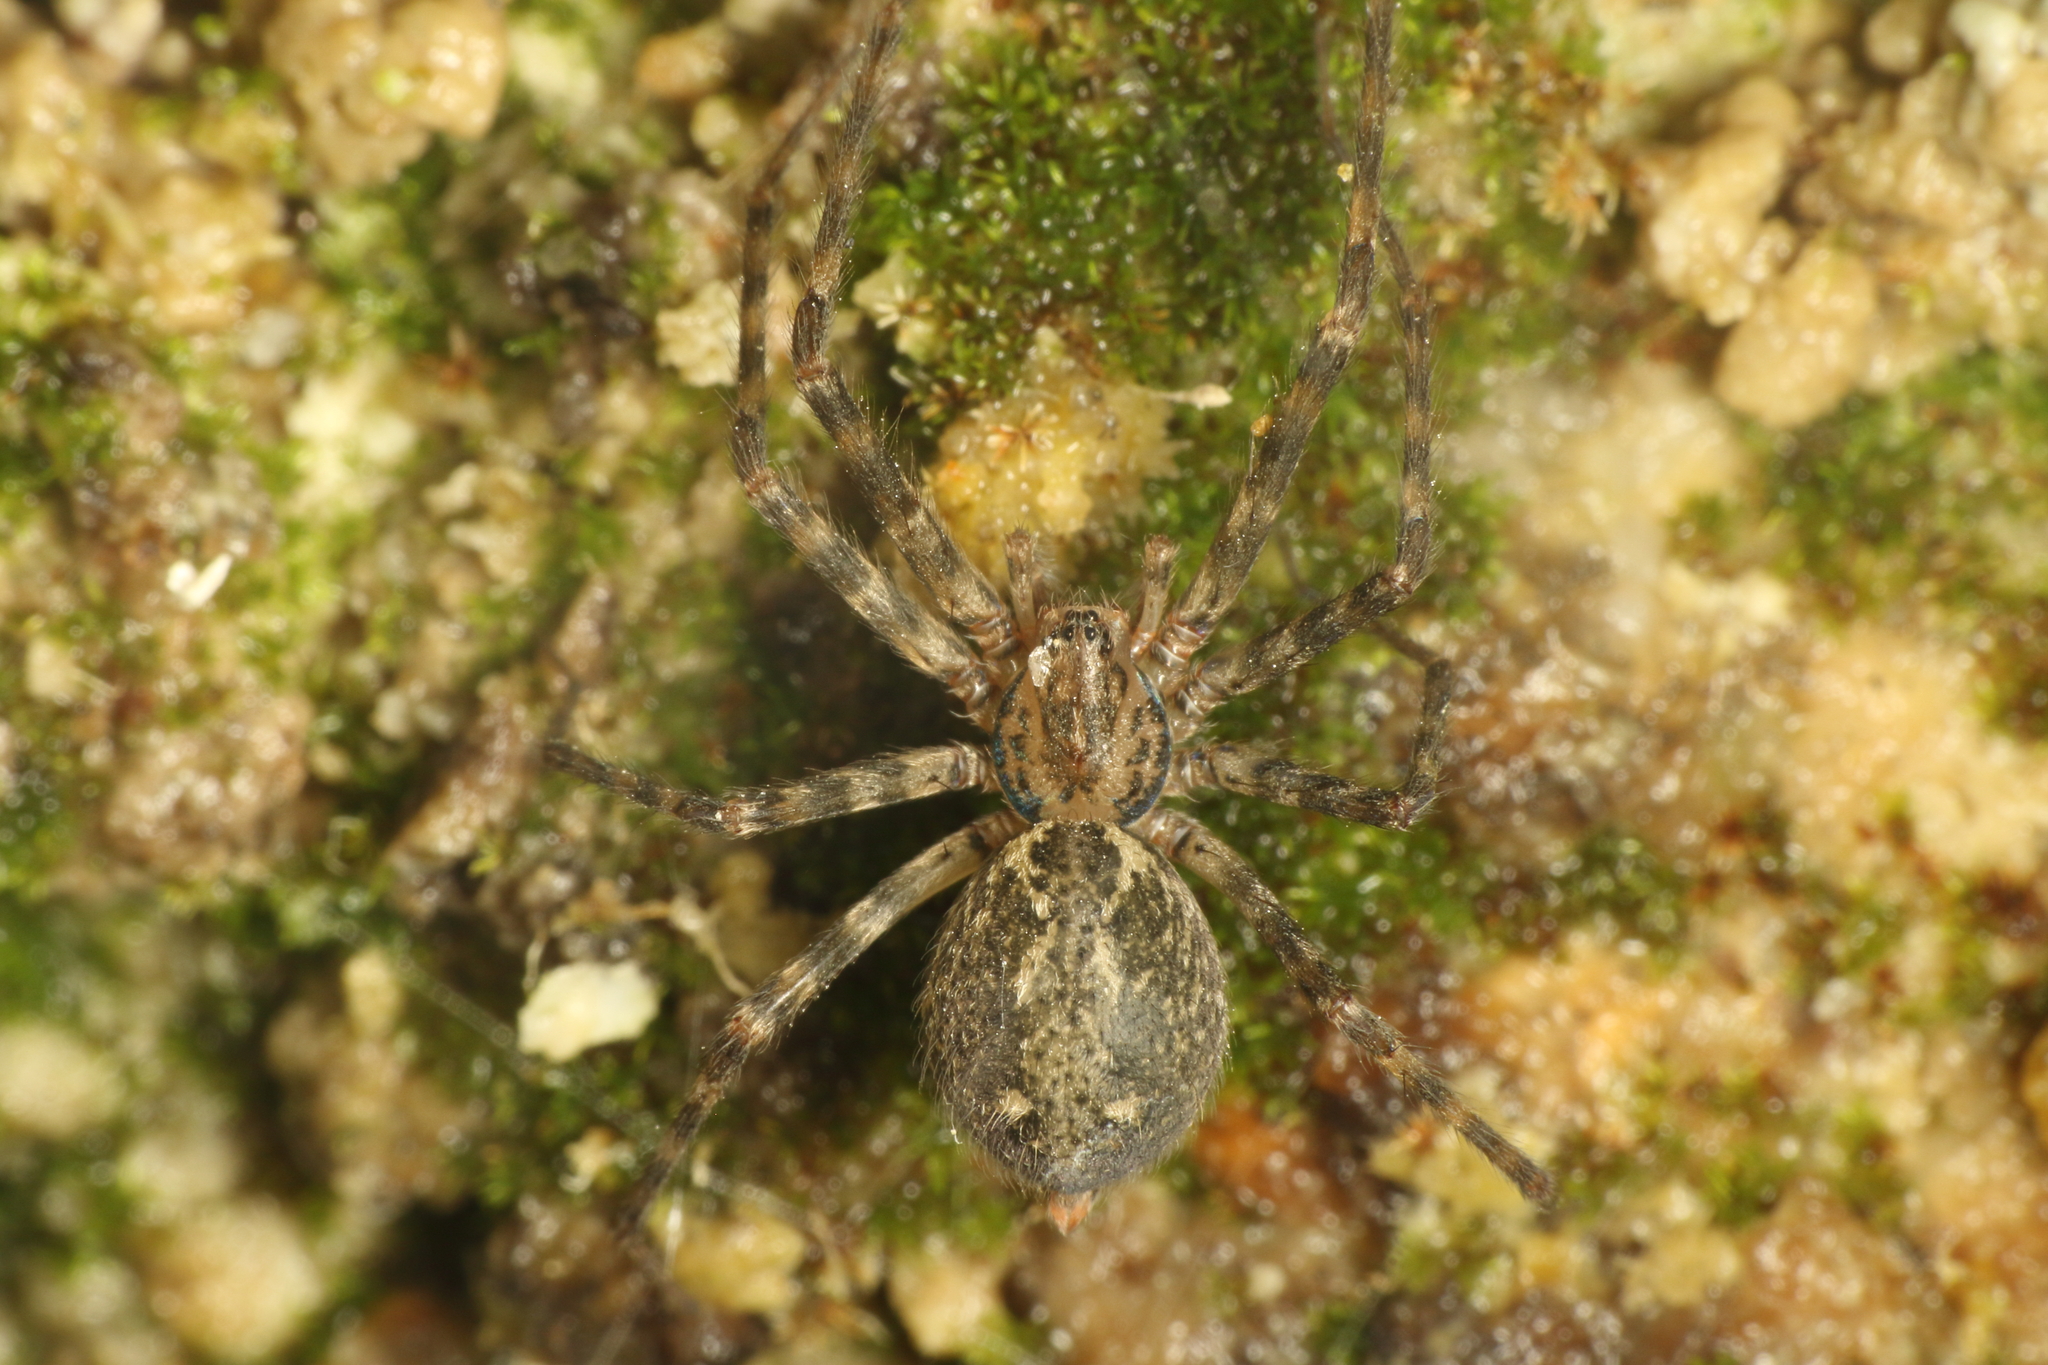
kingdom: Animalia
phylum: Arthropoda
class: Arachnida
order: Araneae
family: Stiphidiidae
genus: Stiphidion
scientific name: Stiphidion facetum
